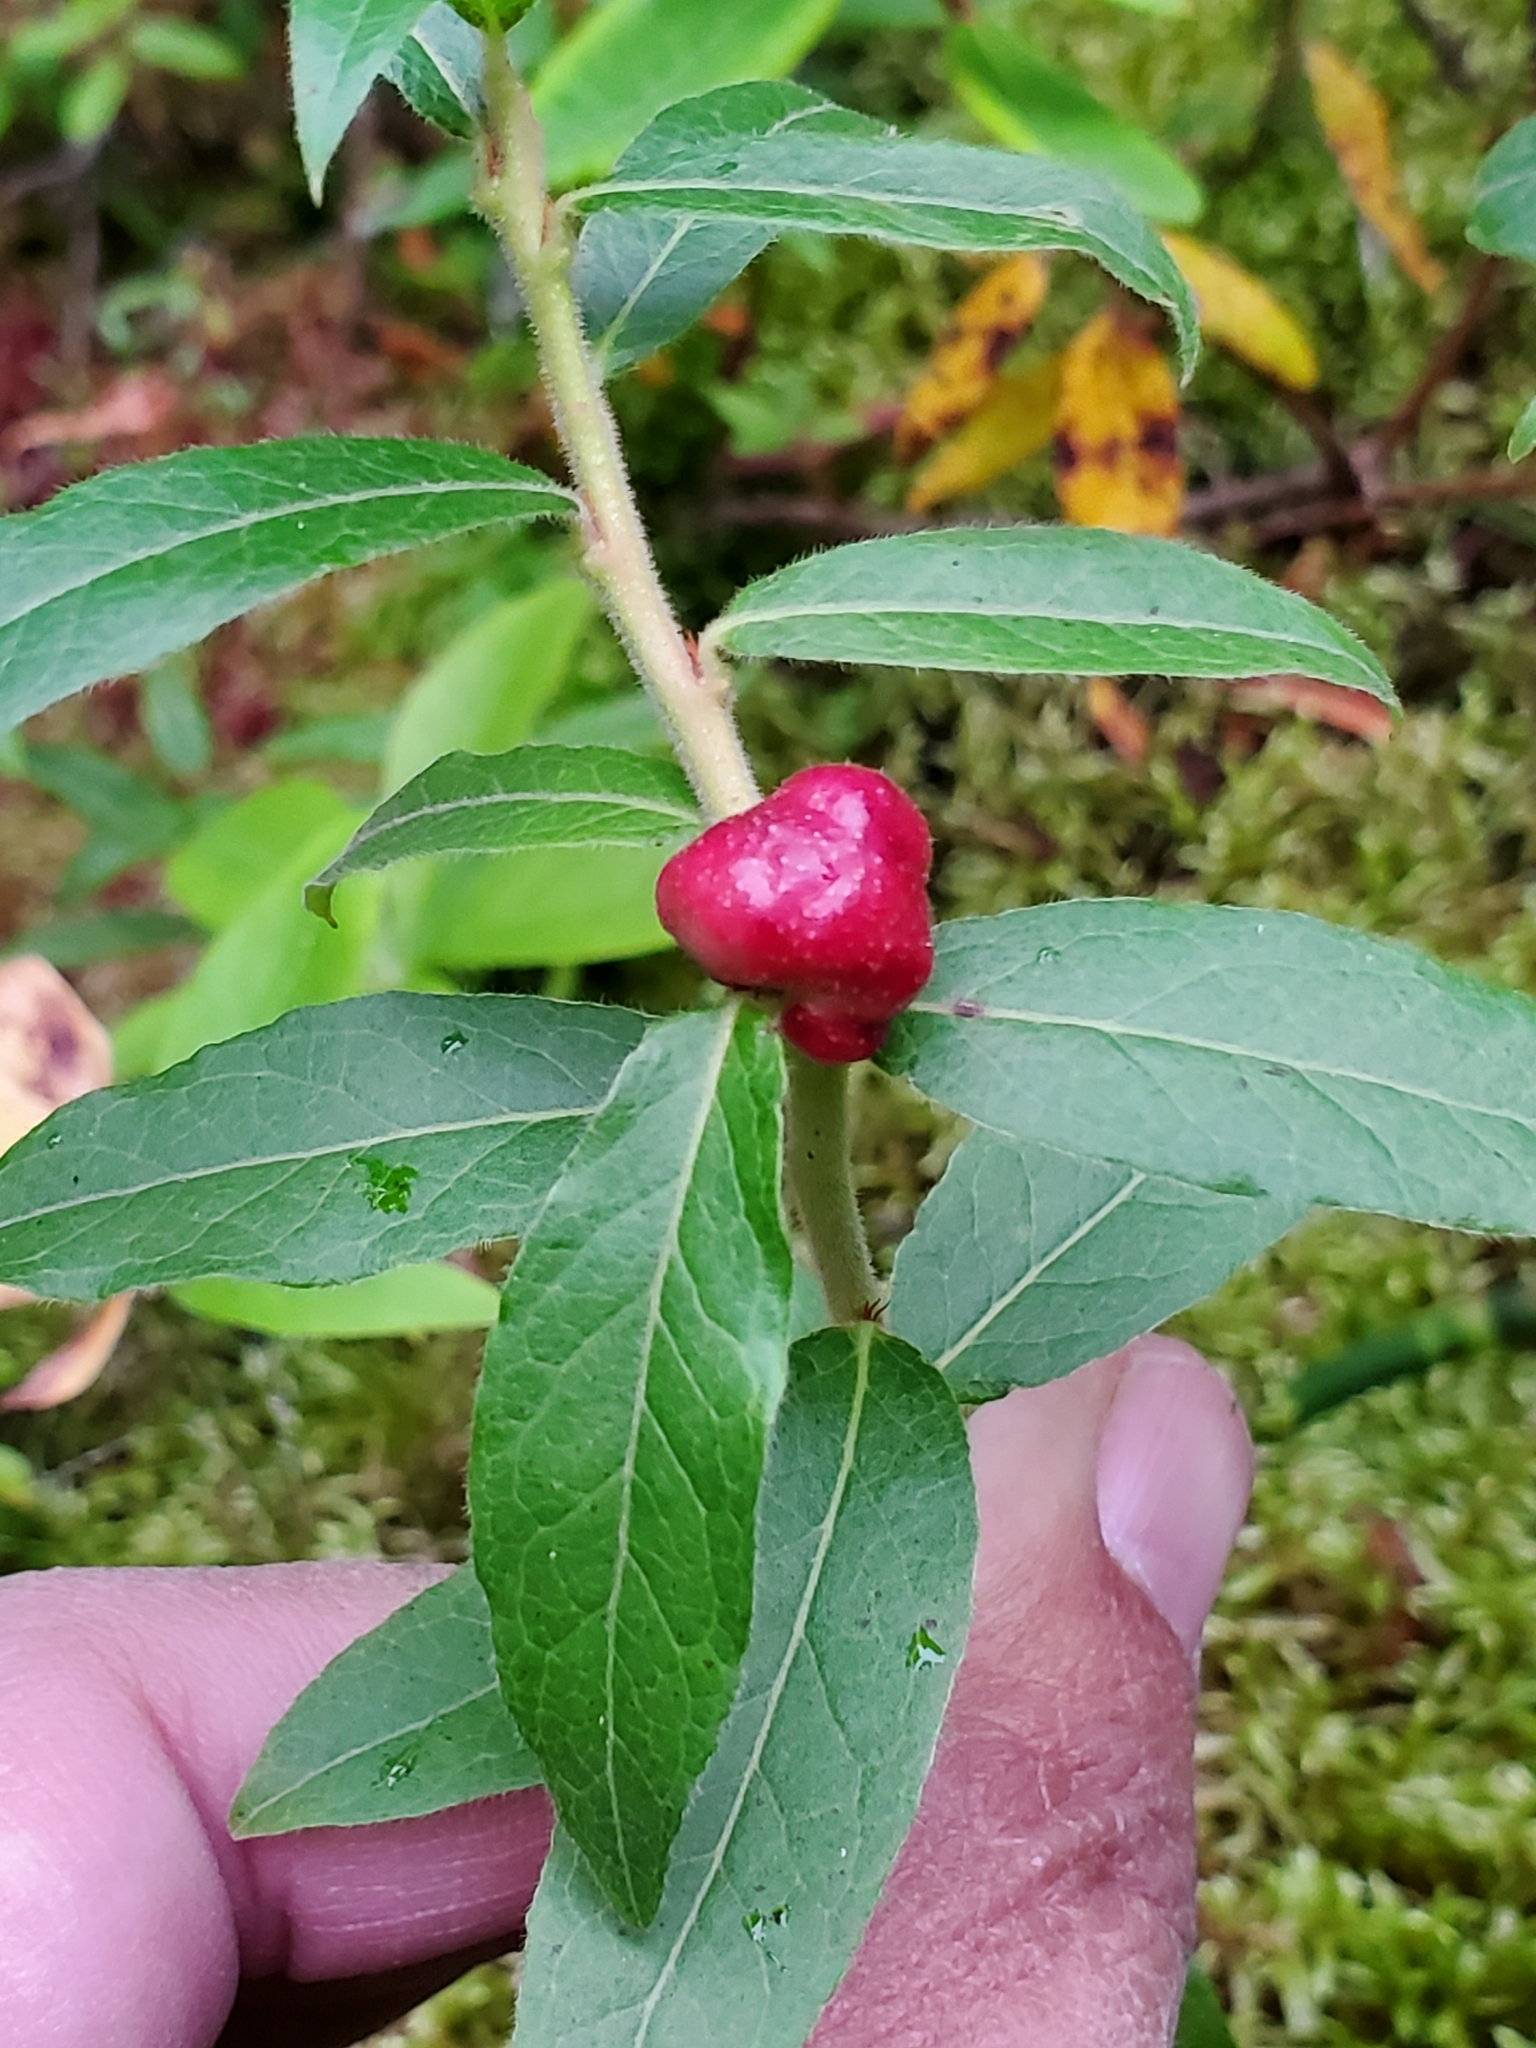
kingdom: Animalia
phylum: Arthropoda
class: Insecta
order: Hymenoptera
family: Pteromalidae
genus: Hemadas
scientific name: Hemadas nubilipennis
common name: Blueberry stem gall wasp
